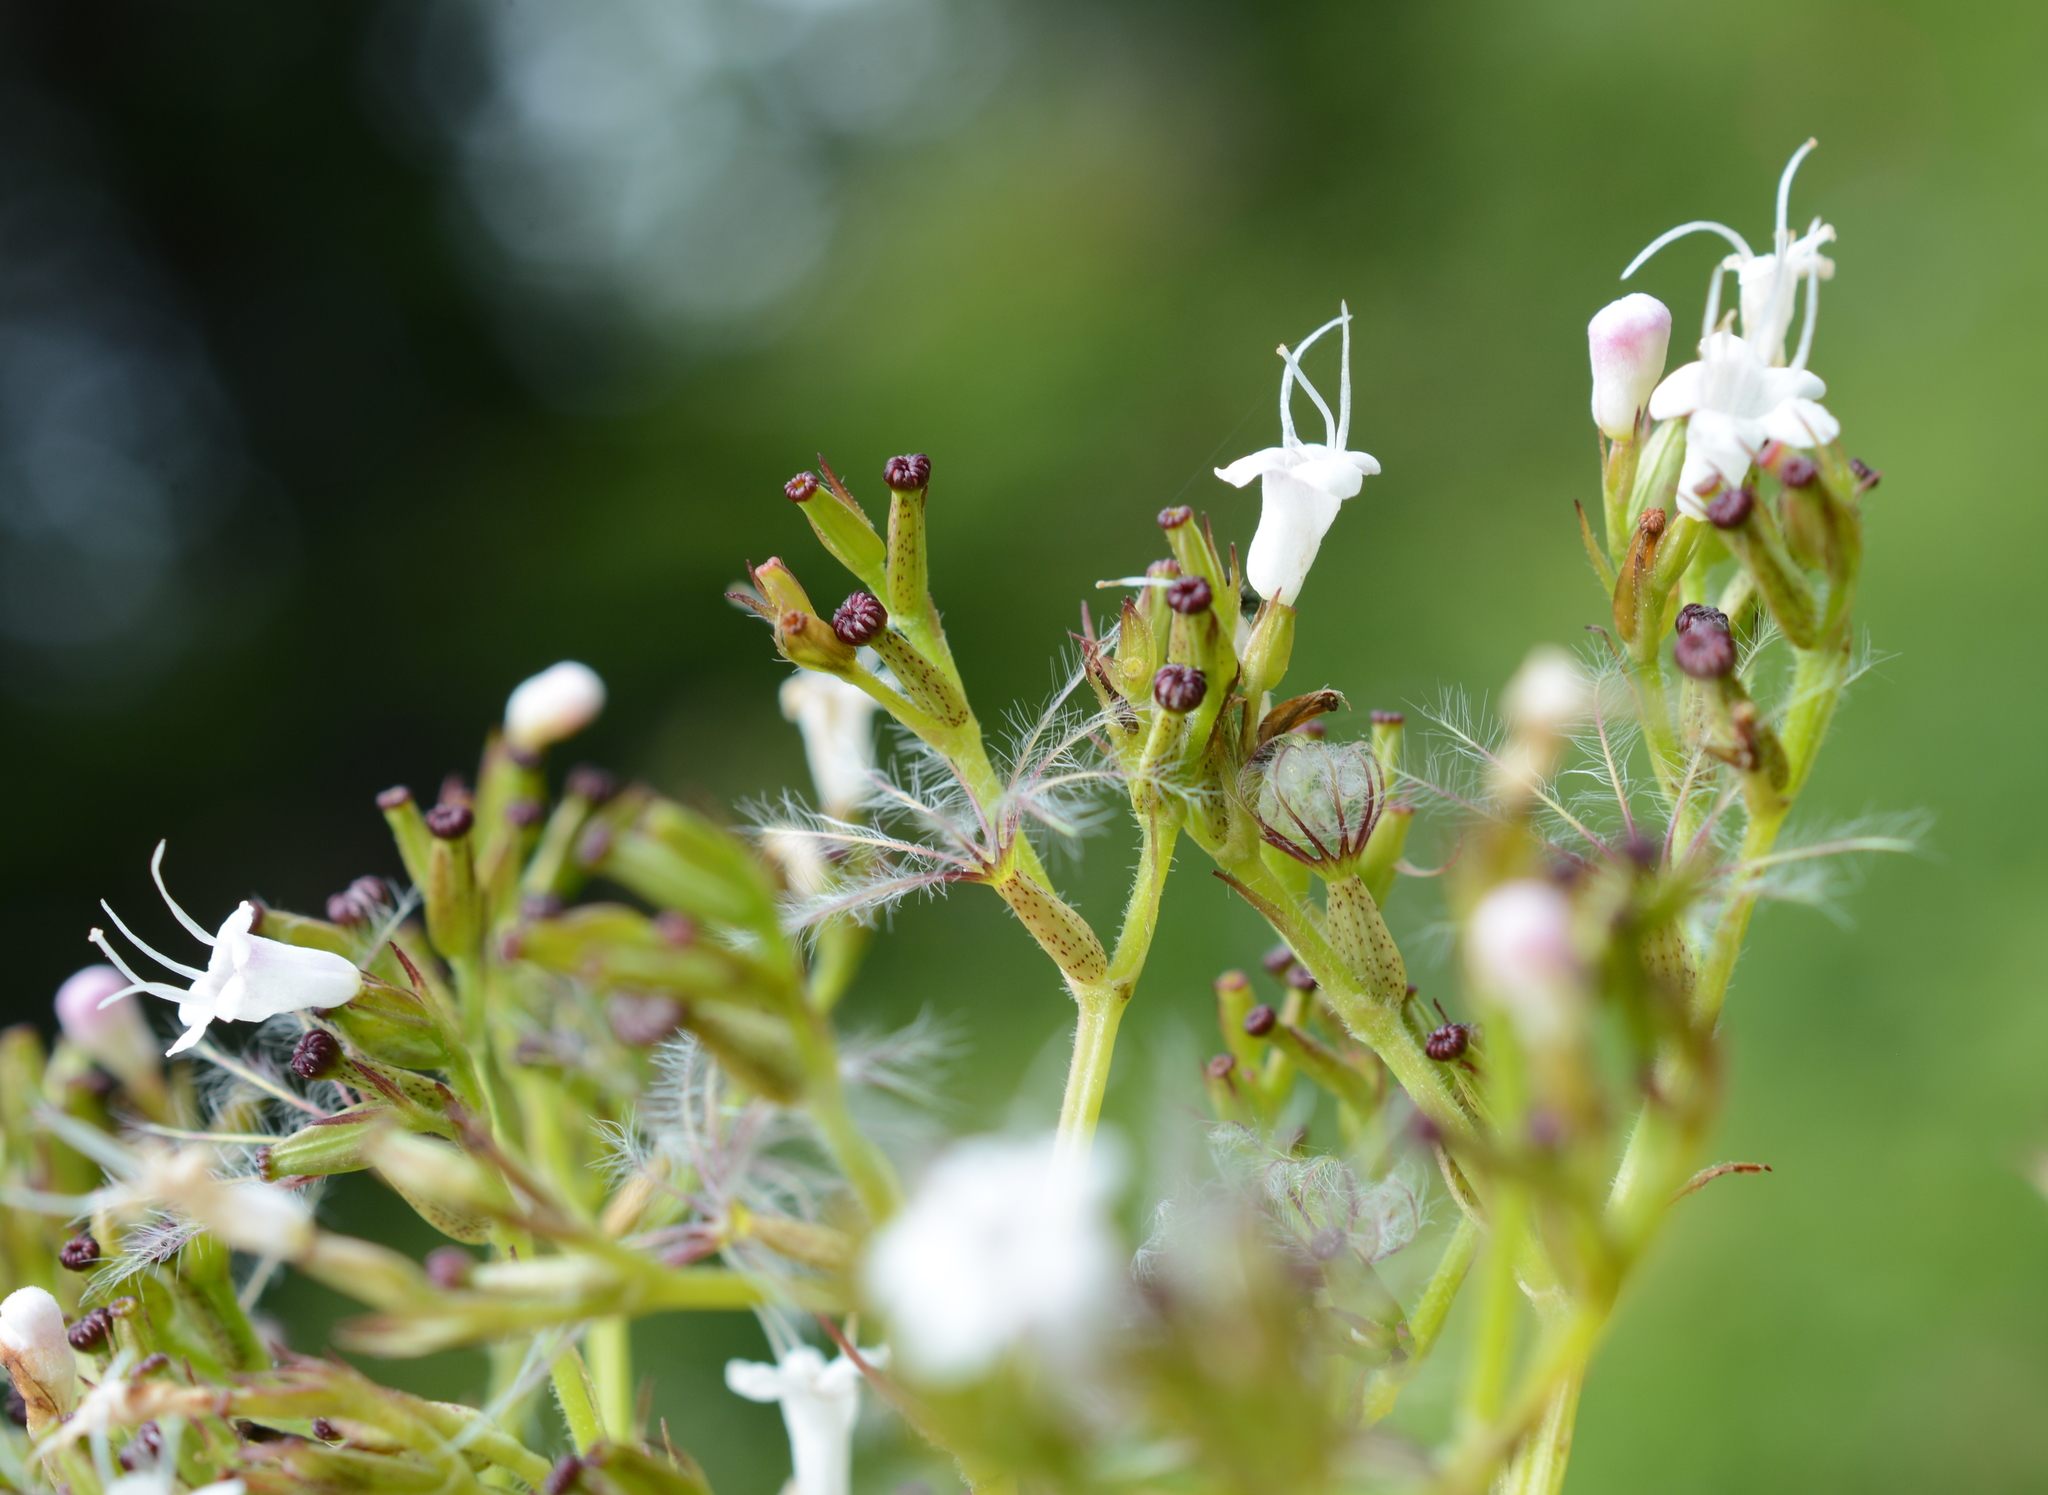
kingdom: Plantae
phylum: Tracheophyta
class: Magnoliopsida
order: Dipsacales
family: Caprifoliaceae
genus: Valeriana
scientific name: Valeriana sitchensis
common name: Pacific valerian
